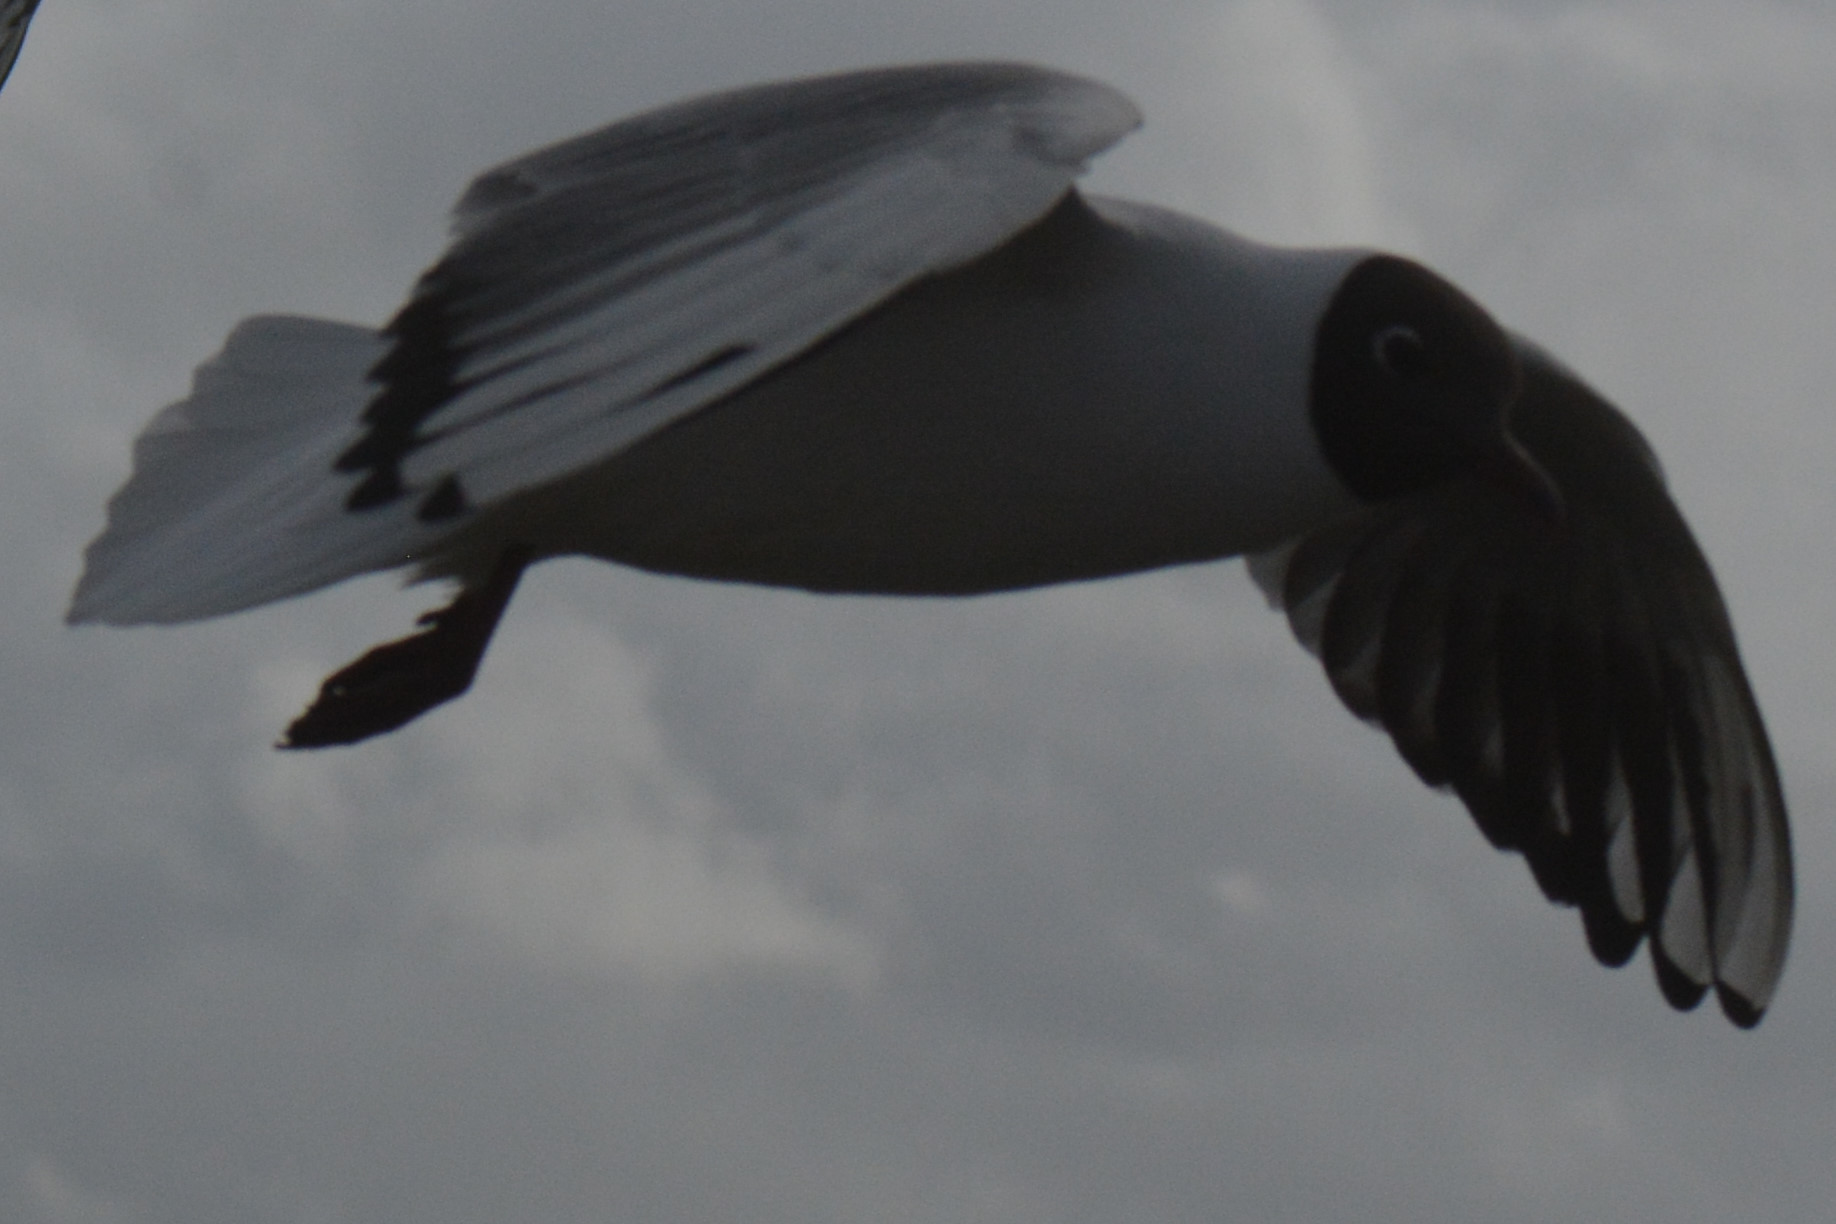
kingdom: Animalia
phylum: Chordata
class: Aves
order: Charadriiformes
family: Laridae
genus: Chroicocephalus
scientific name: Chroicocephalus ridibundus
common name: Black-headed gull
